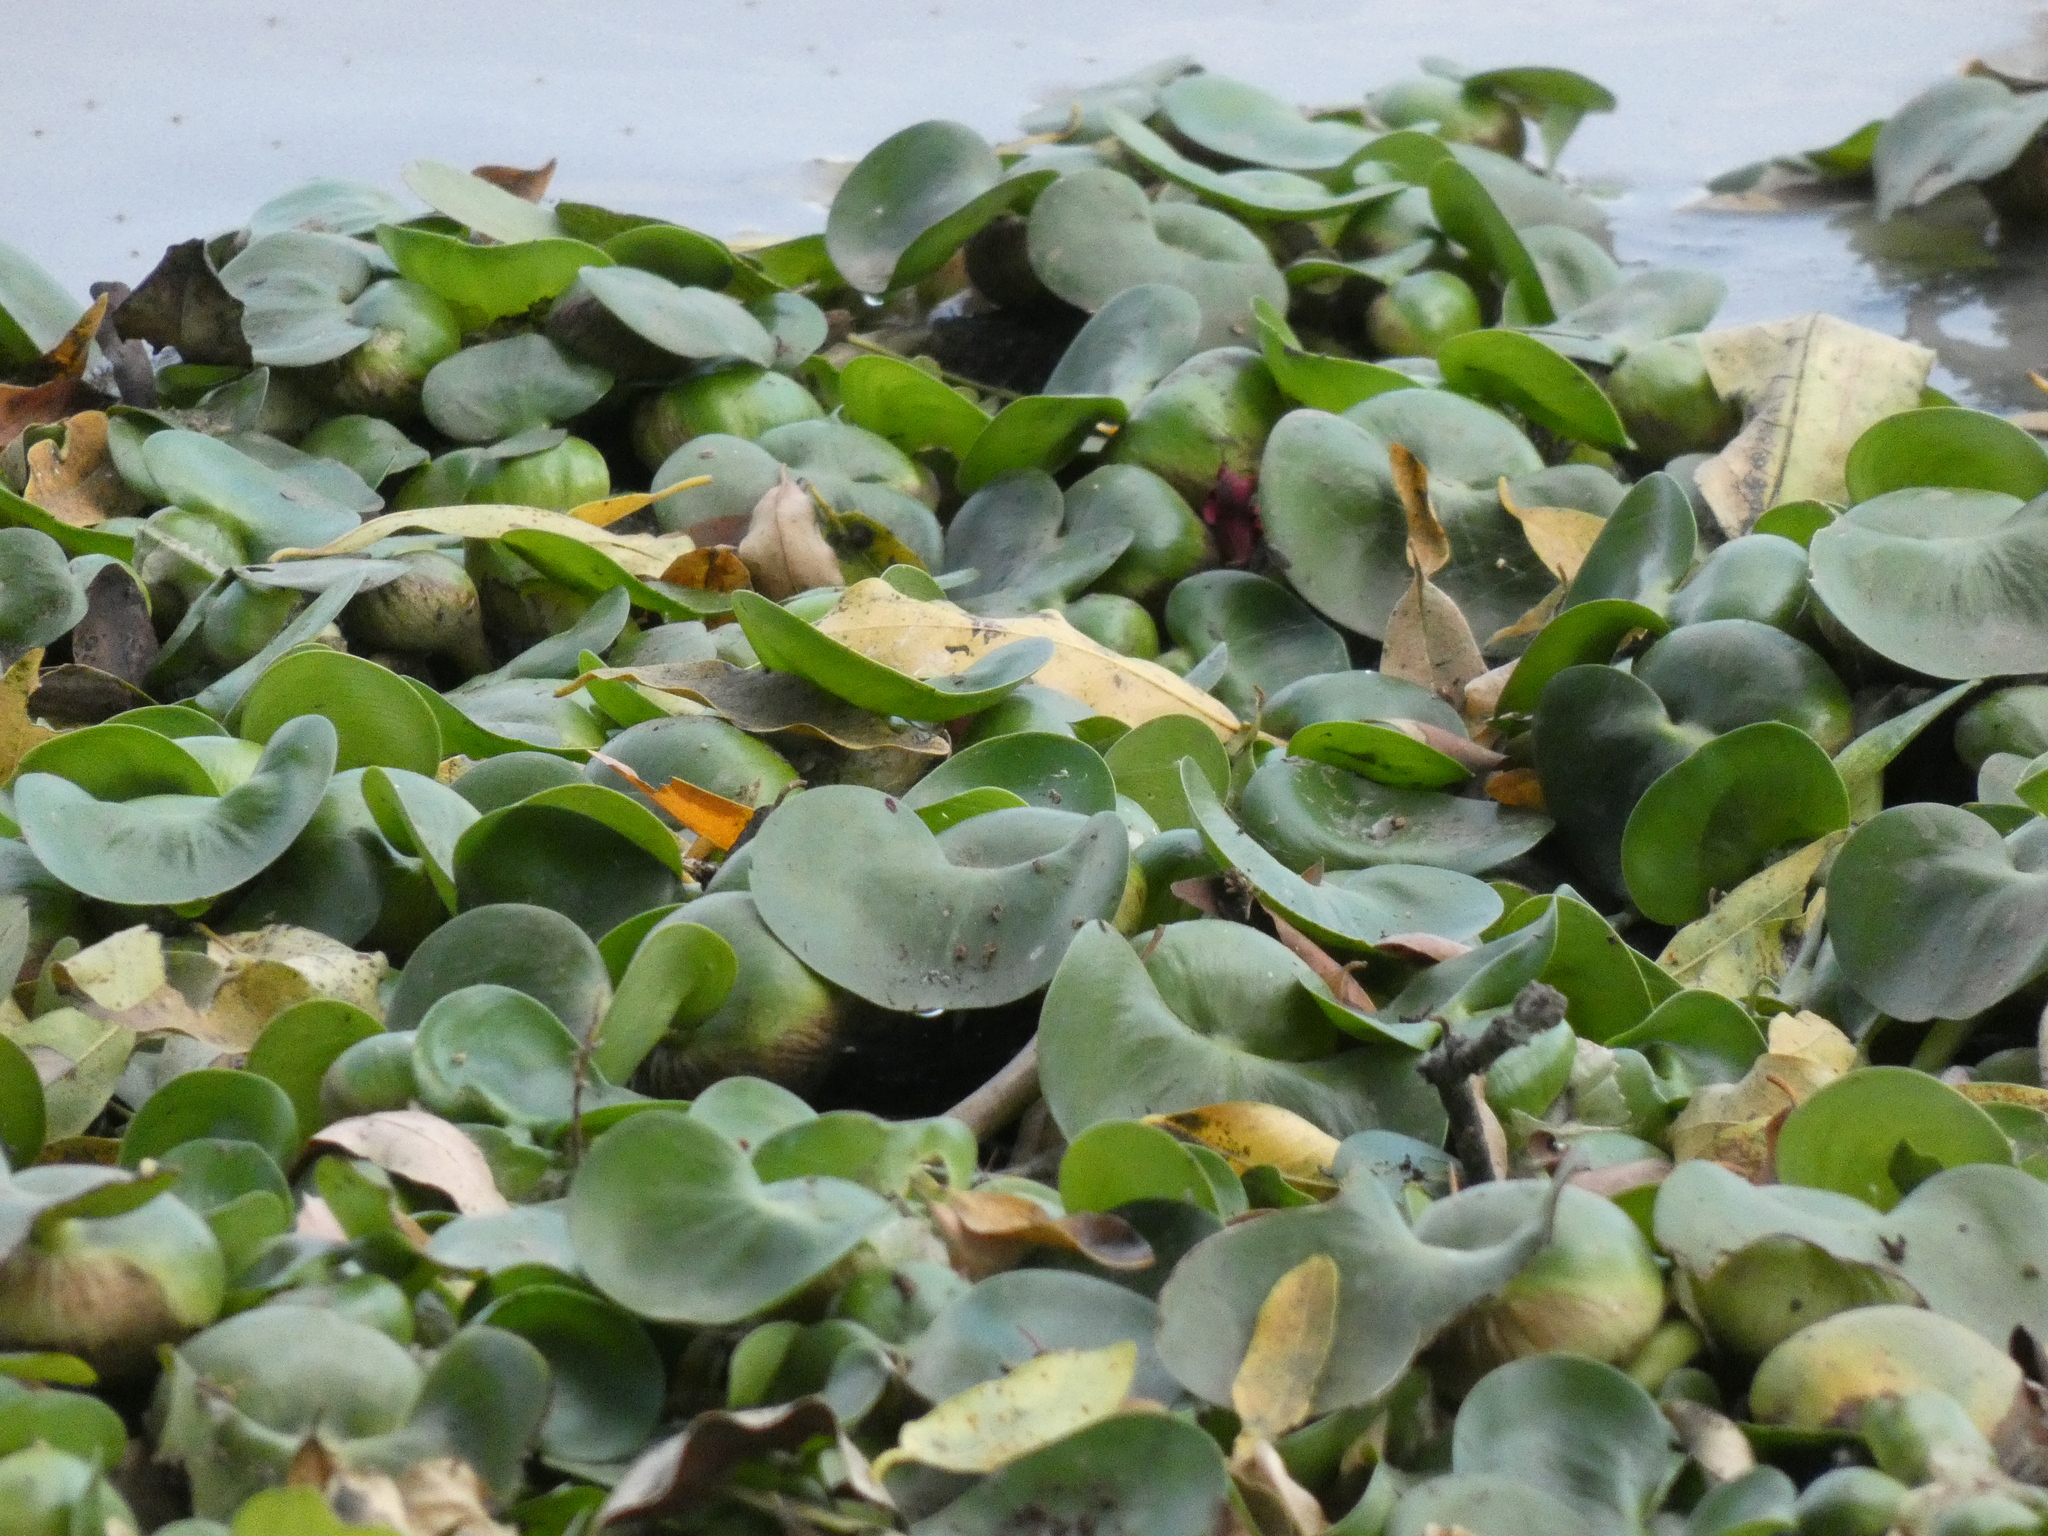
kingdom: Plantae
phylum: Tracheophyta
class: Liliopsida
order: Commelinales
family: Pontederiaceae
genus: Pontederia
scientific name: Pontederia crassipes
